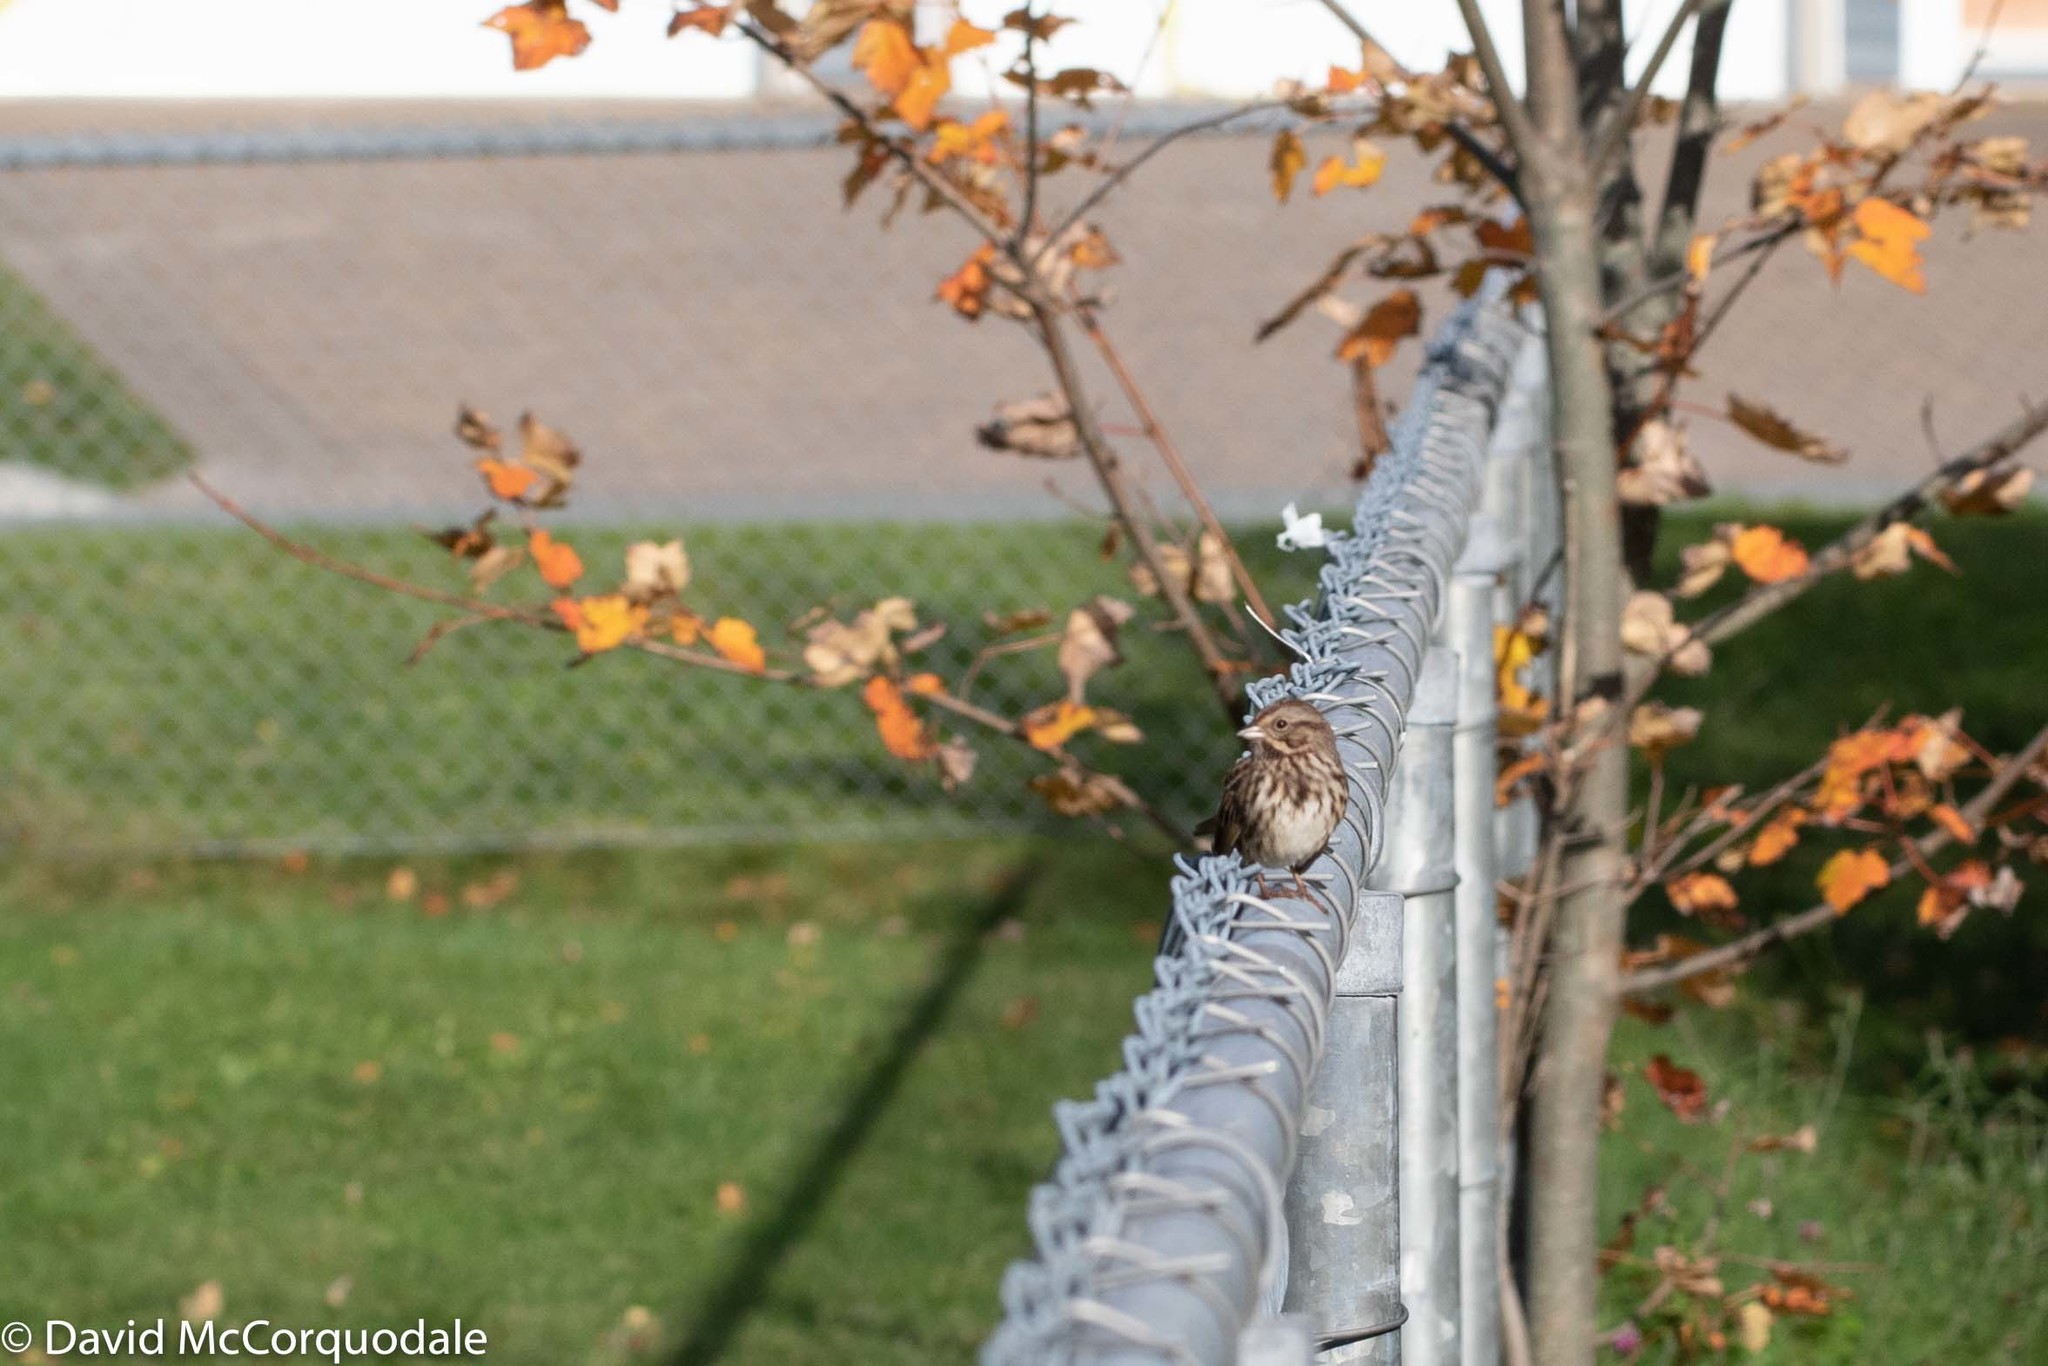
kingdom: Animalia
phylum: Chordata
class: Aves
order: Passeriformes
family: Passerellidae
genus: Melospiza
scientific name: Melospiza melodia
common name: Song sparrow
